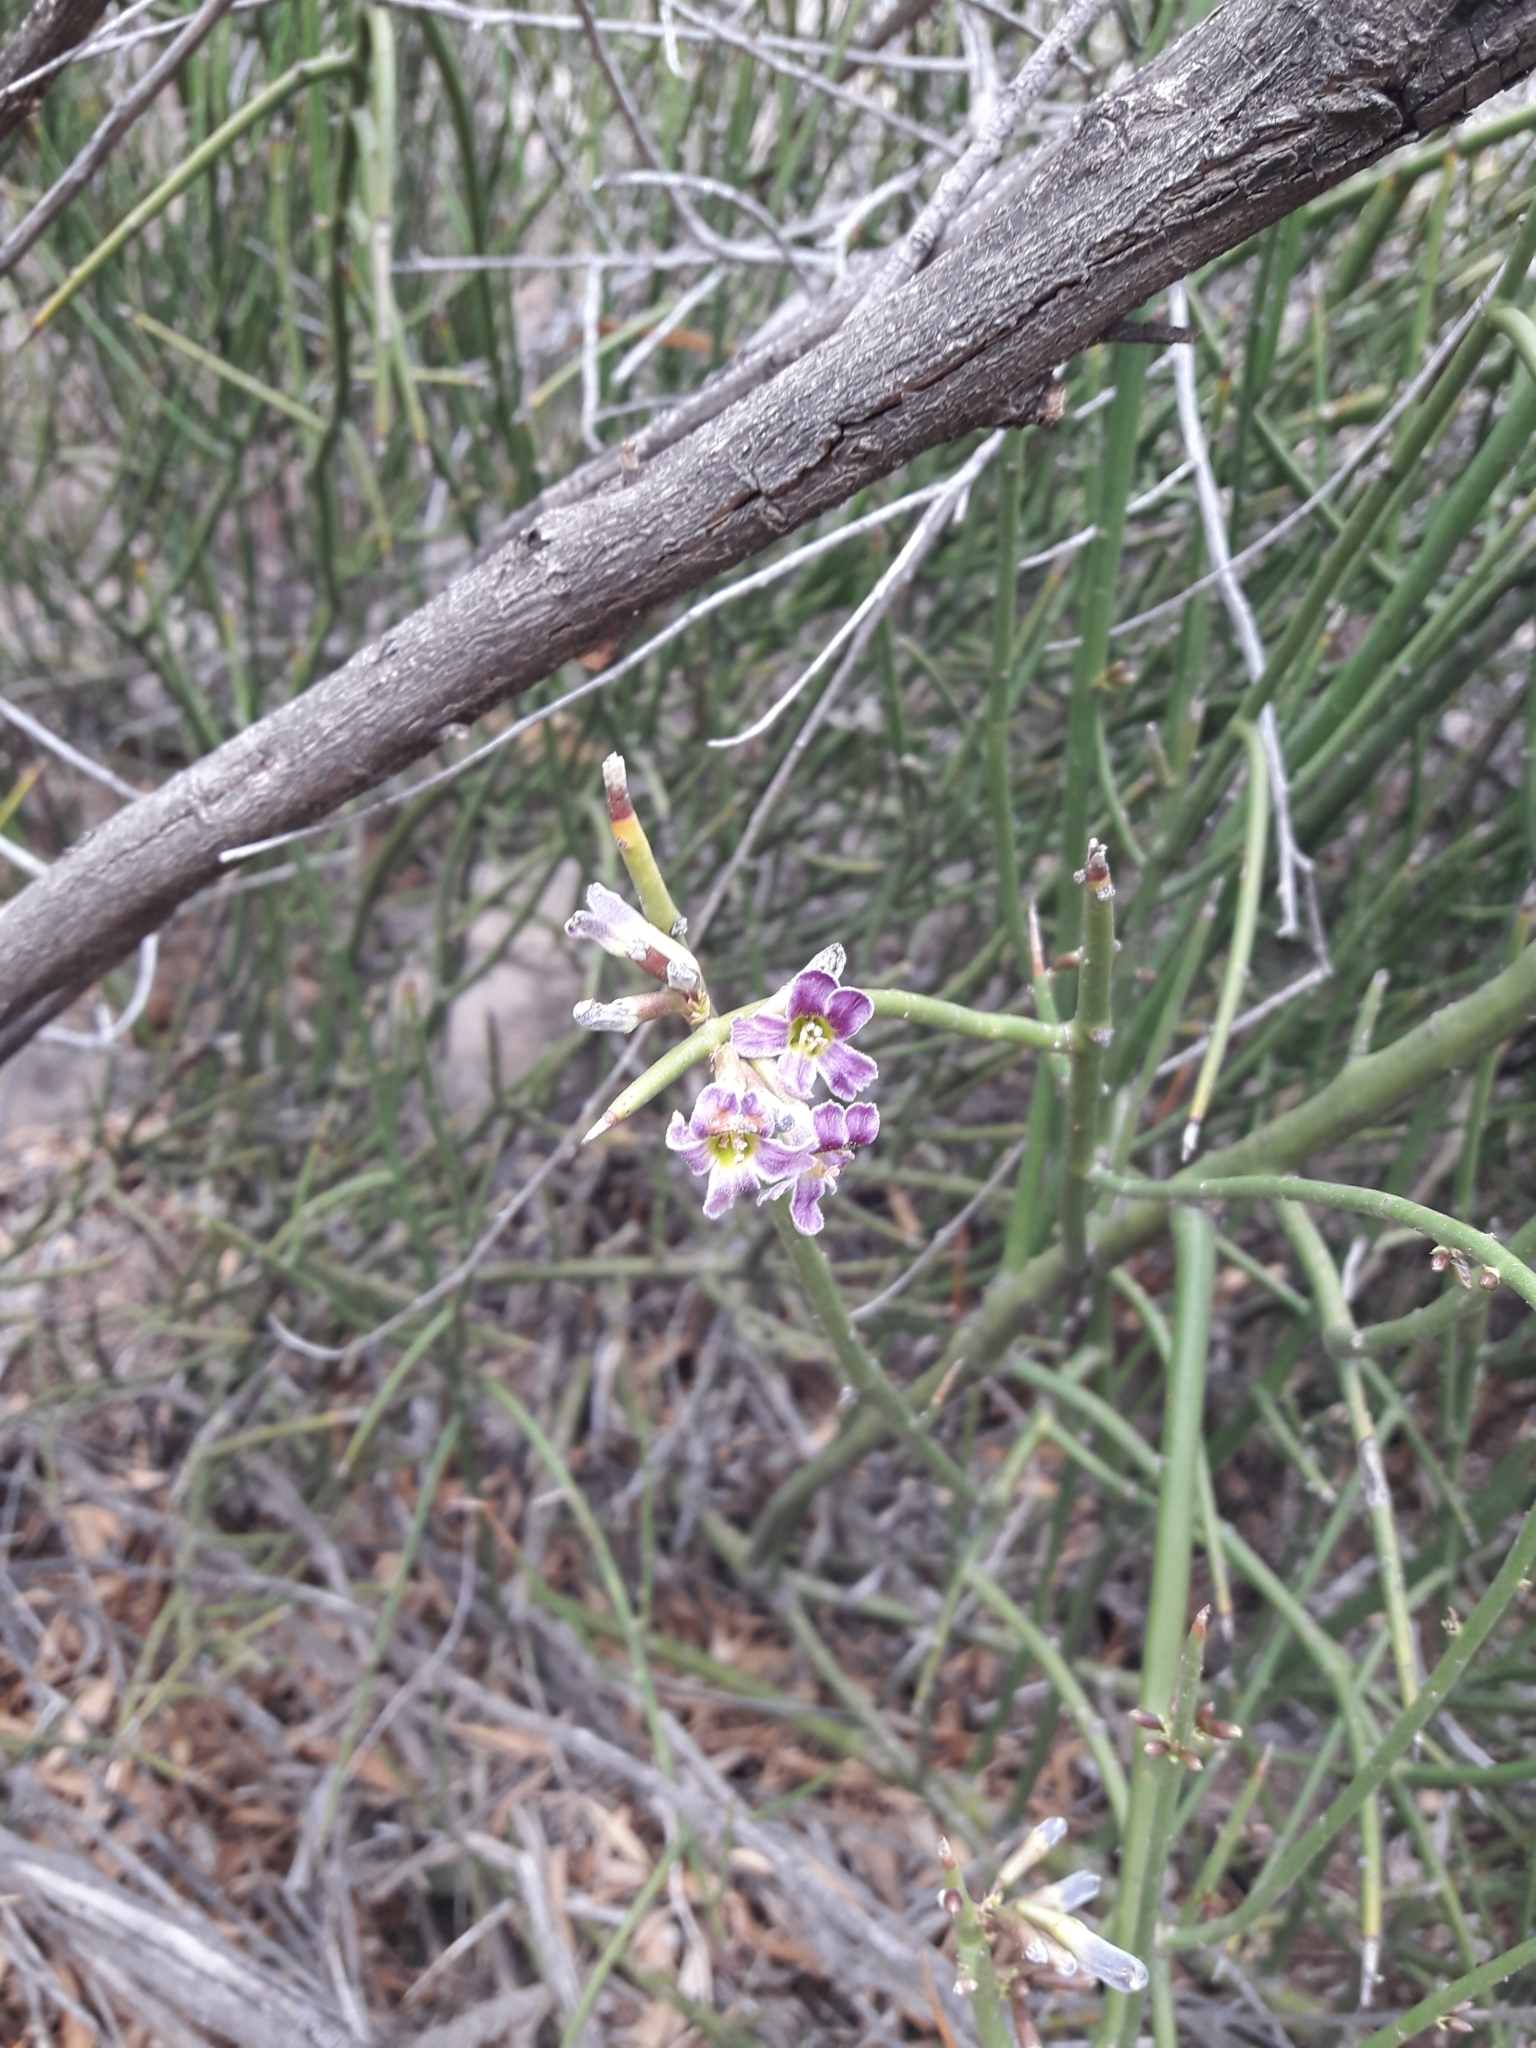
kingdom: Plantae
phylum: Tracheophyta
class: Magnoliopsida
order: Lamiales
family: Plantaginaceae
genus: Monttea
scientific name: Monttea aphylla
